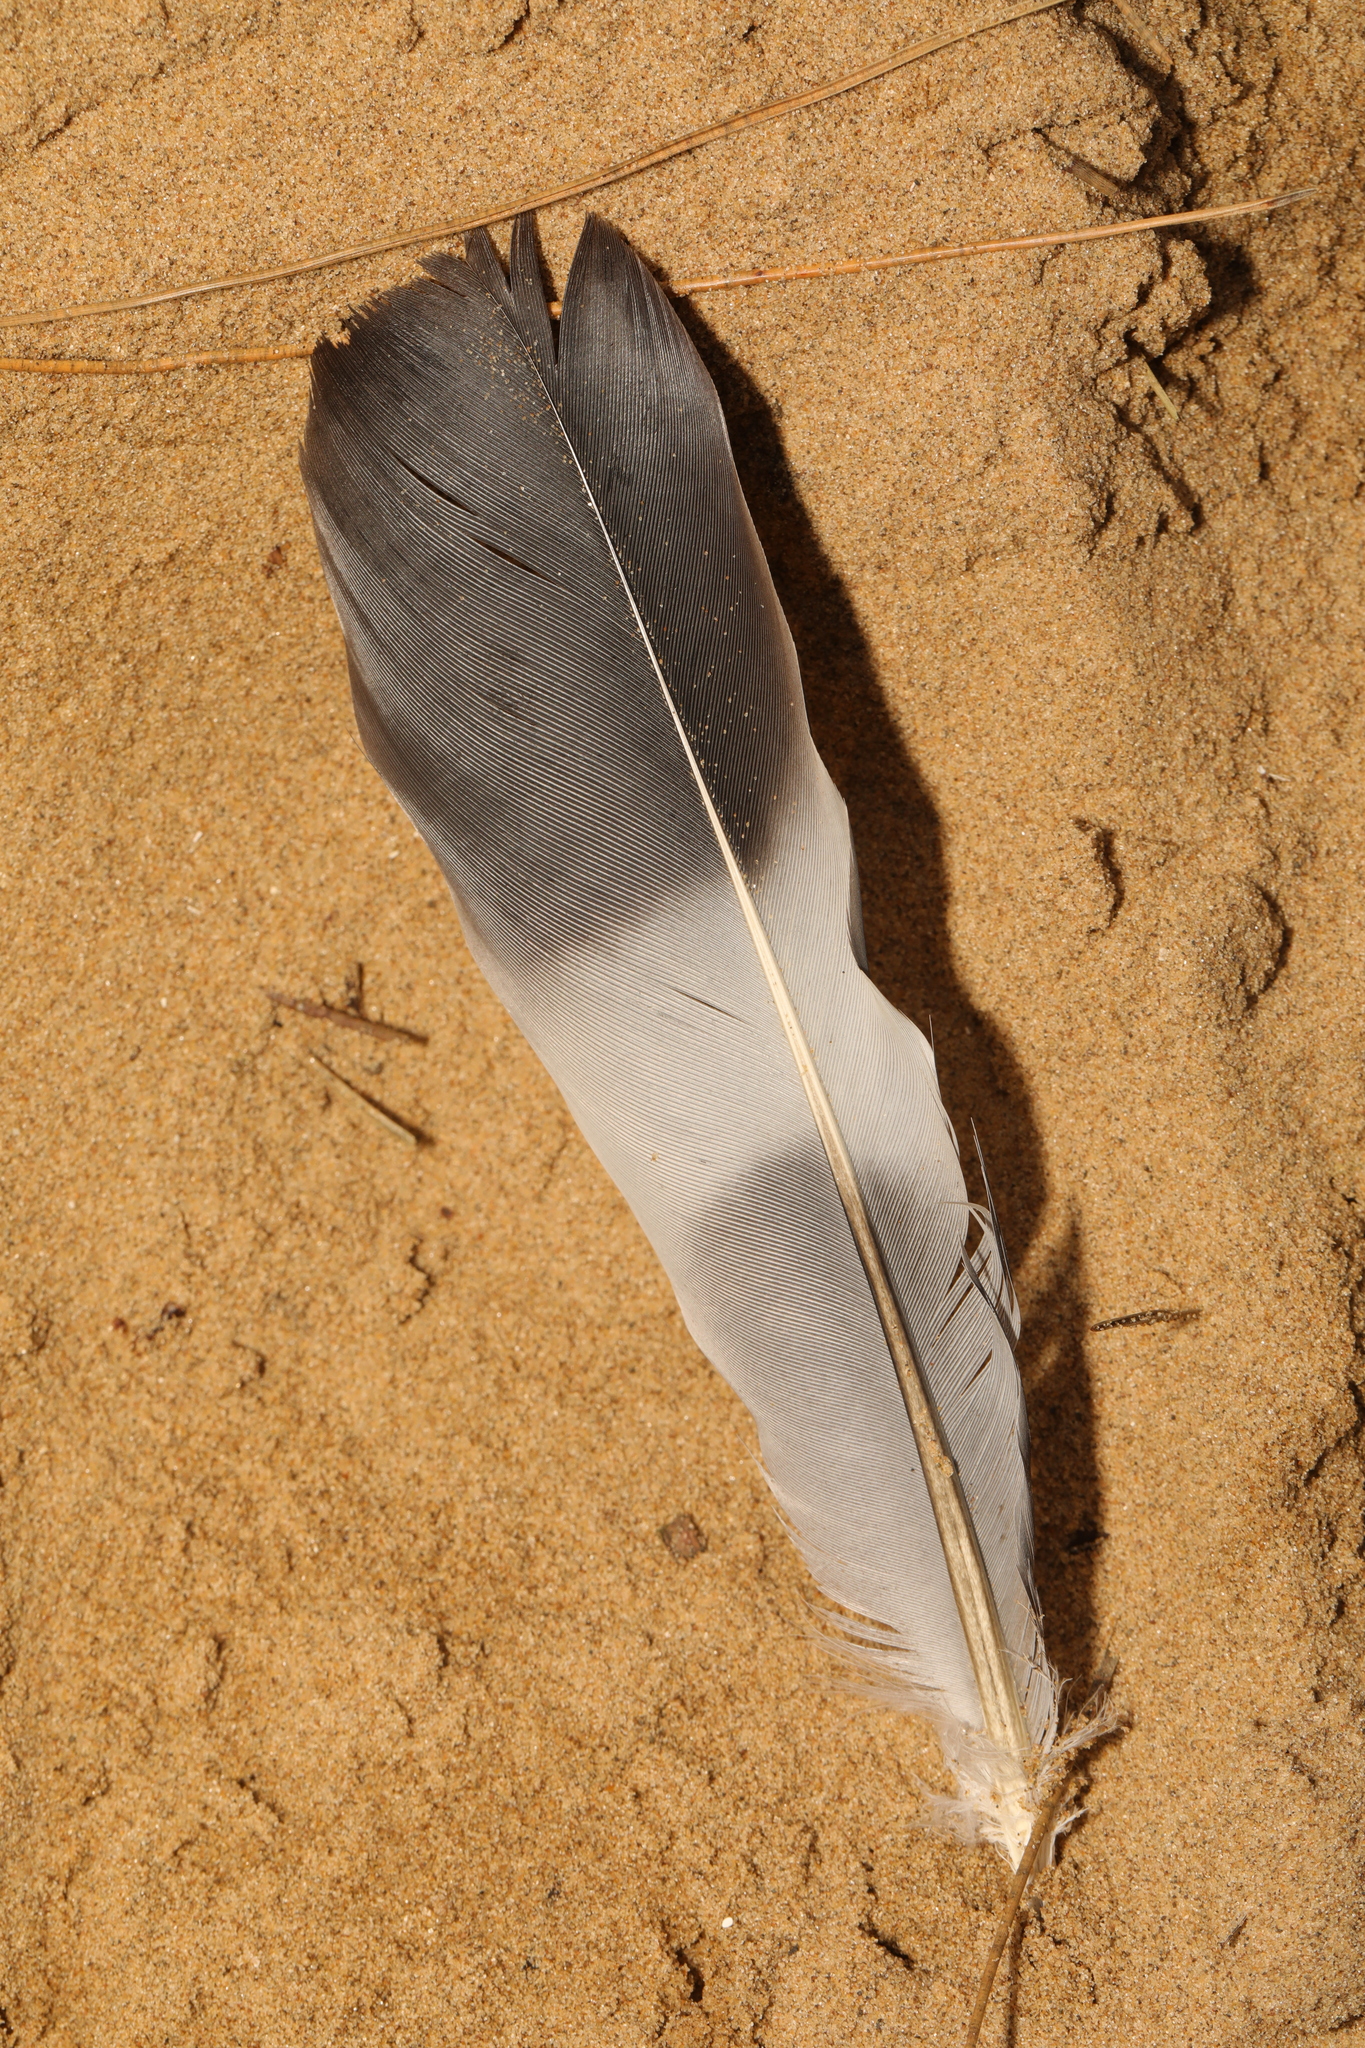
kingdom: Animalia
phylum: Chordata
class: Aves
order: Columbiformes
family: Columbidae
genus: Columba
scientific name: Columba palumbus
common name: Common wood pigeon
